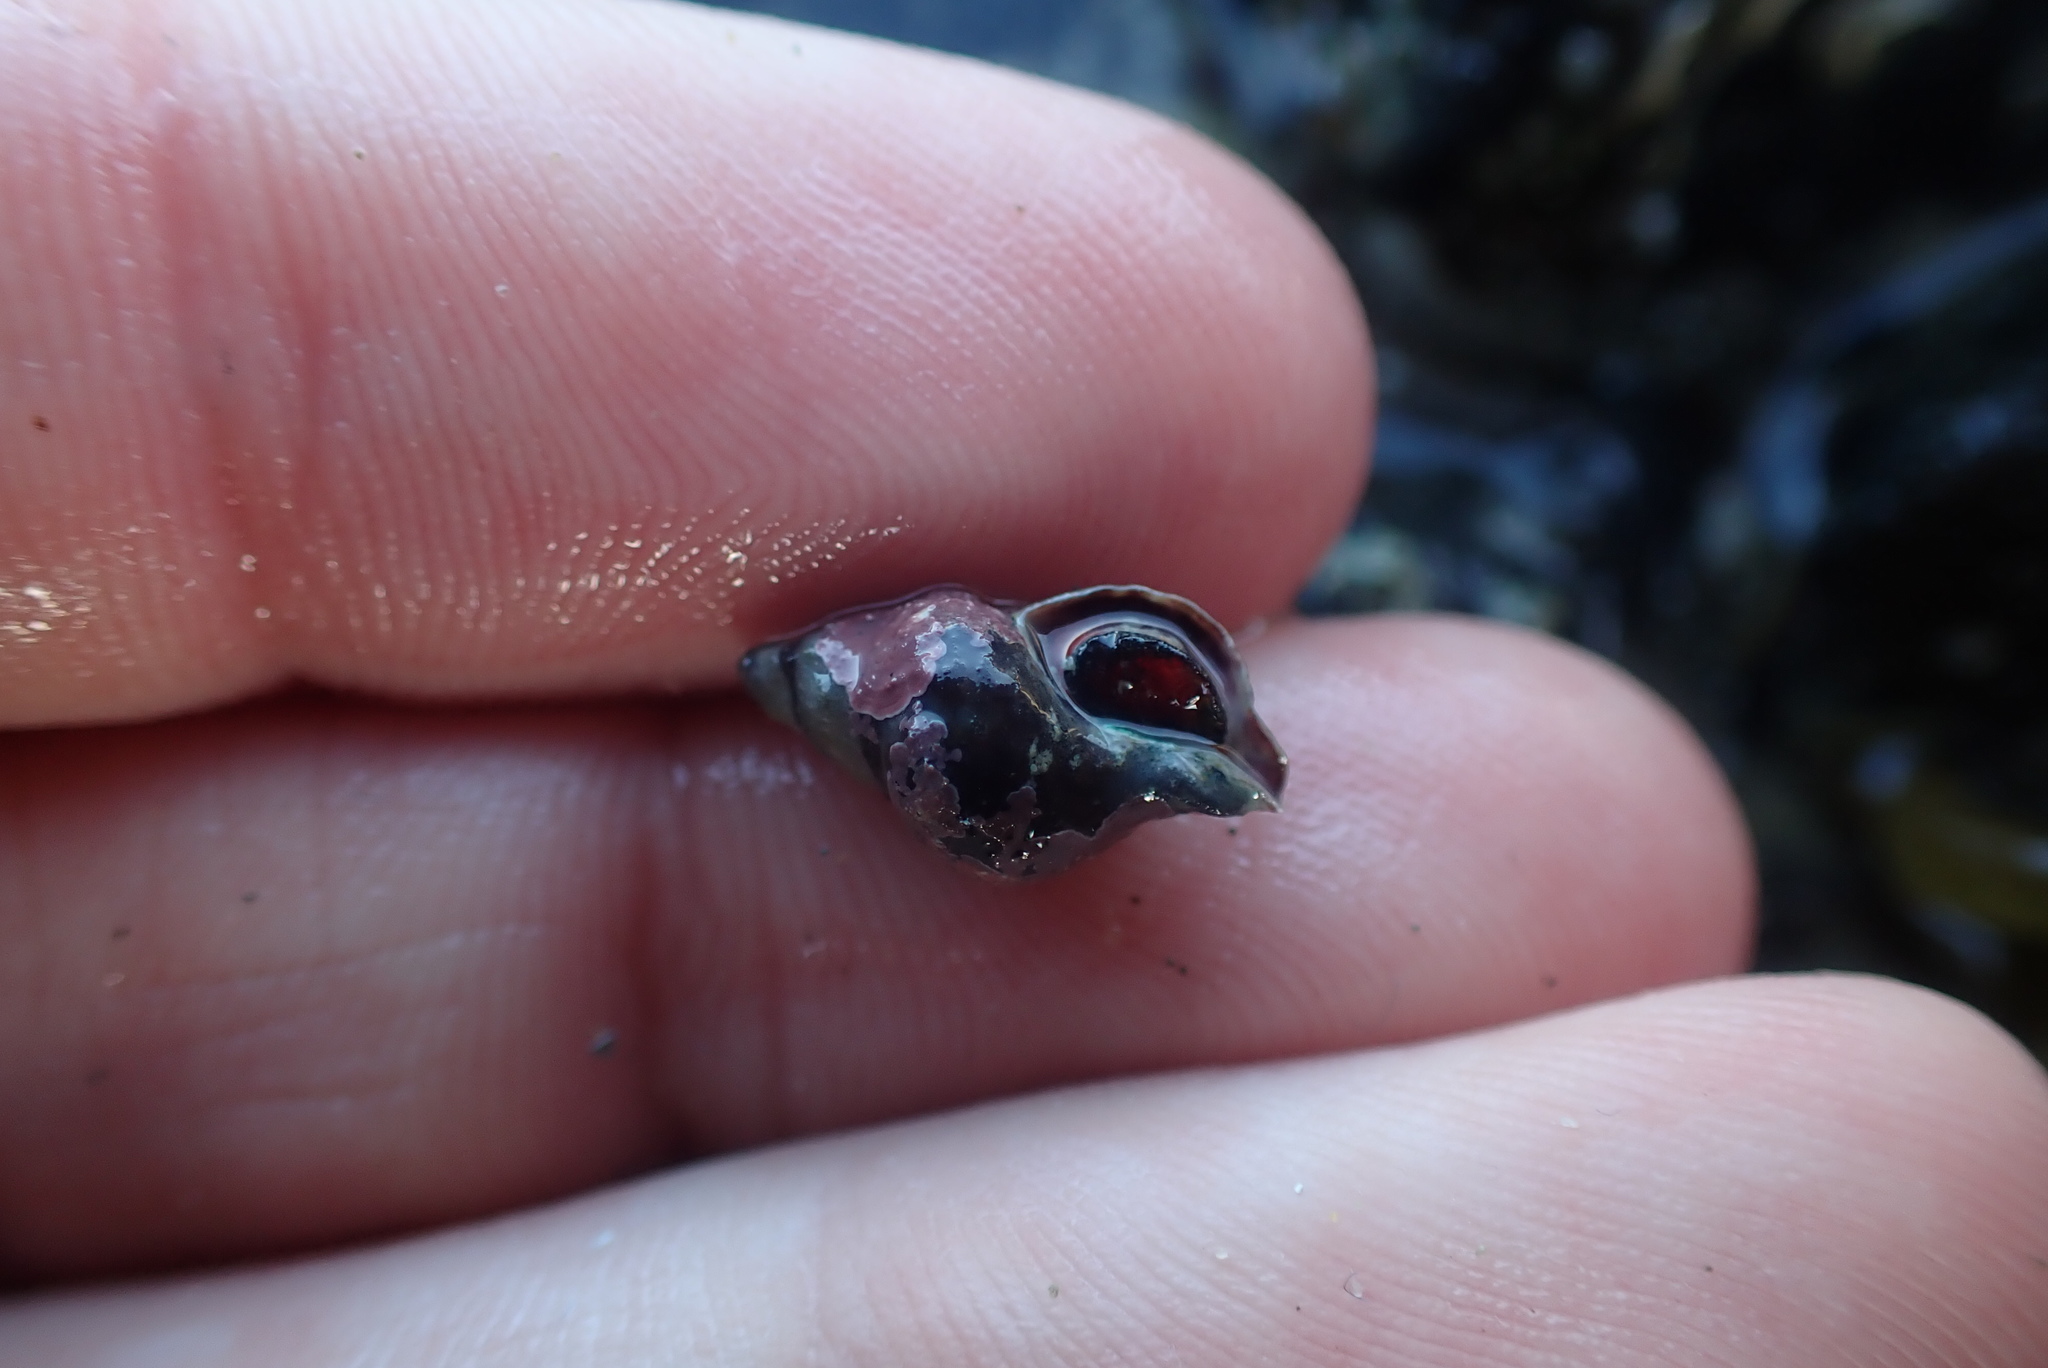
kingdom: Animalia
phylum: Mollusca
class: Gastropoda
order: Neogastropoda
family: Fasciolariidae
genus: Taron
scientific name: Taron dubius
